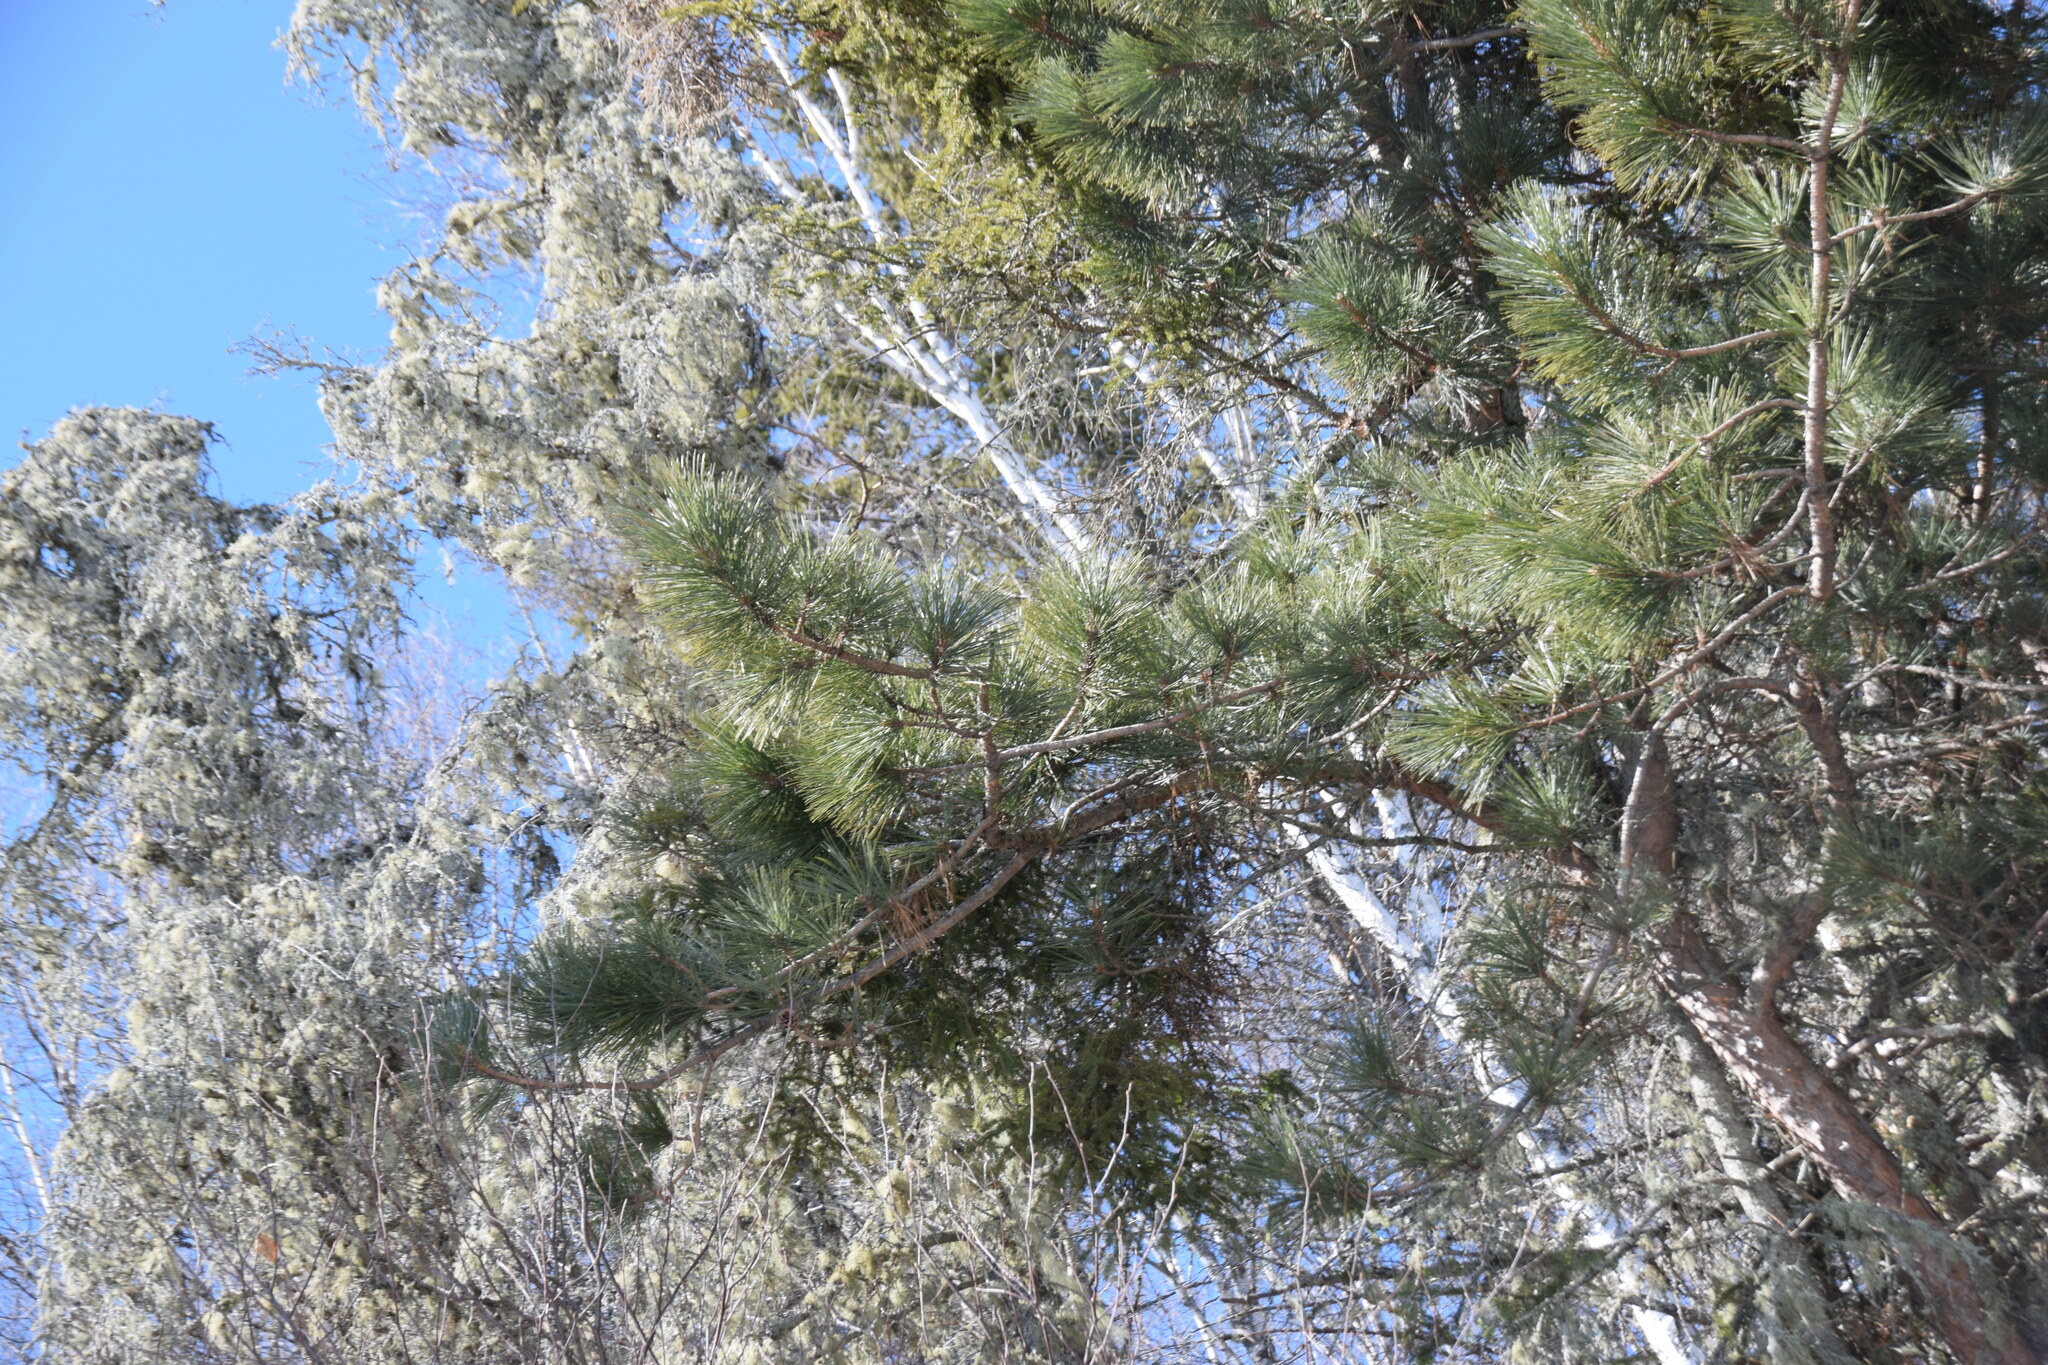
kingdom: Plantae
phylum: Tracheophyta
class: Pinopsida
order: Pinales
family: Pinaceae
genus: Pinus
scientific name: Pinus resinosa
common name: Norway pine
